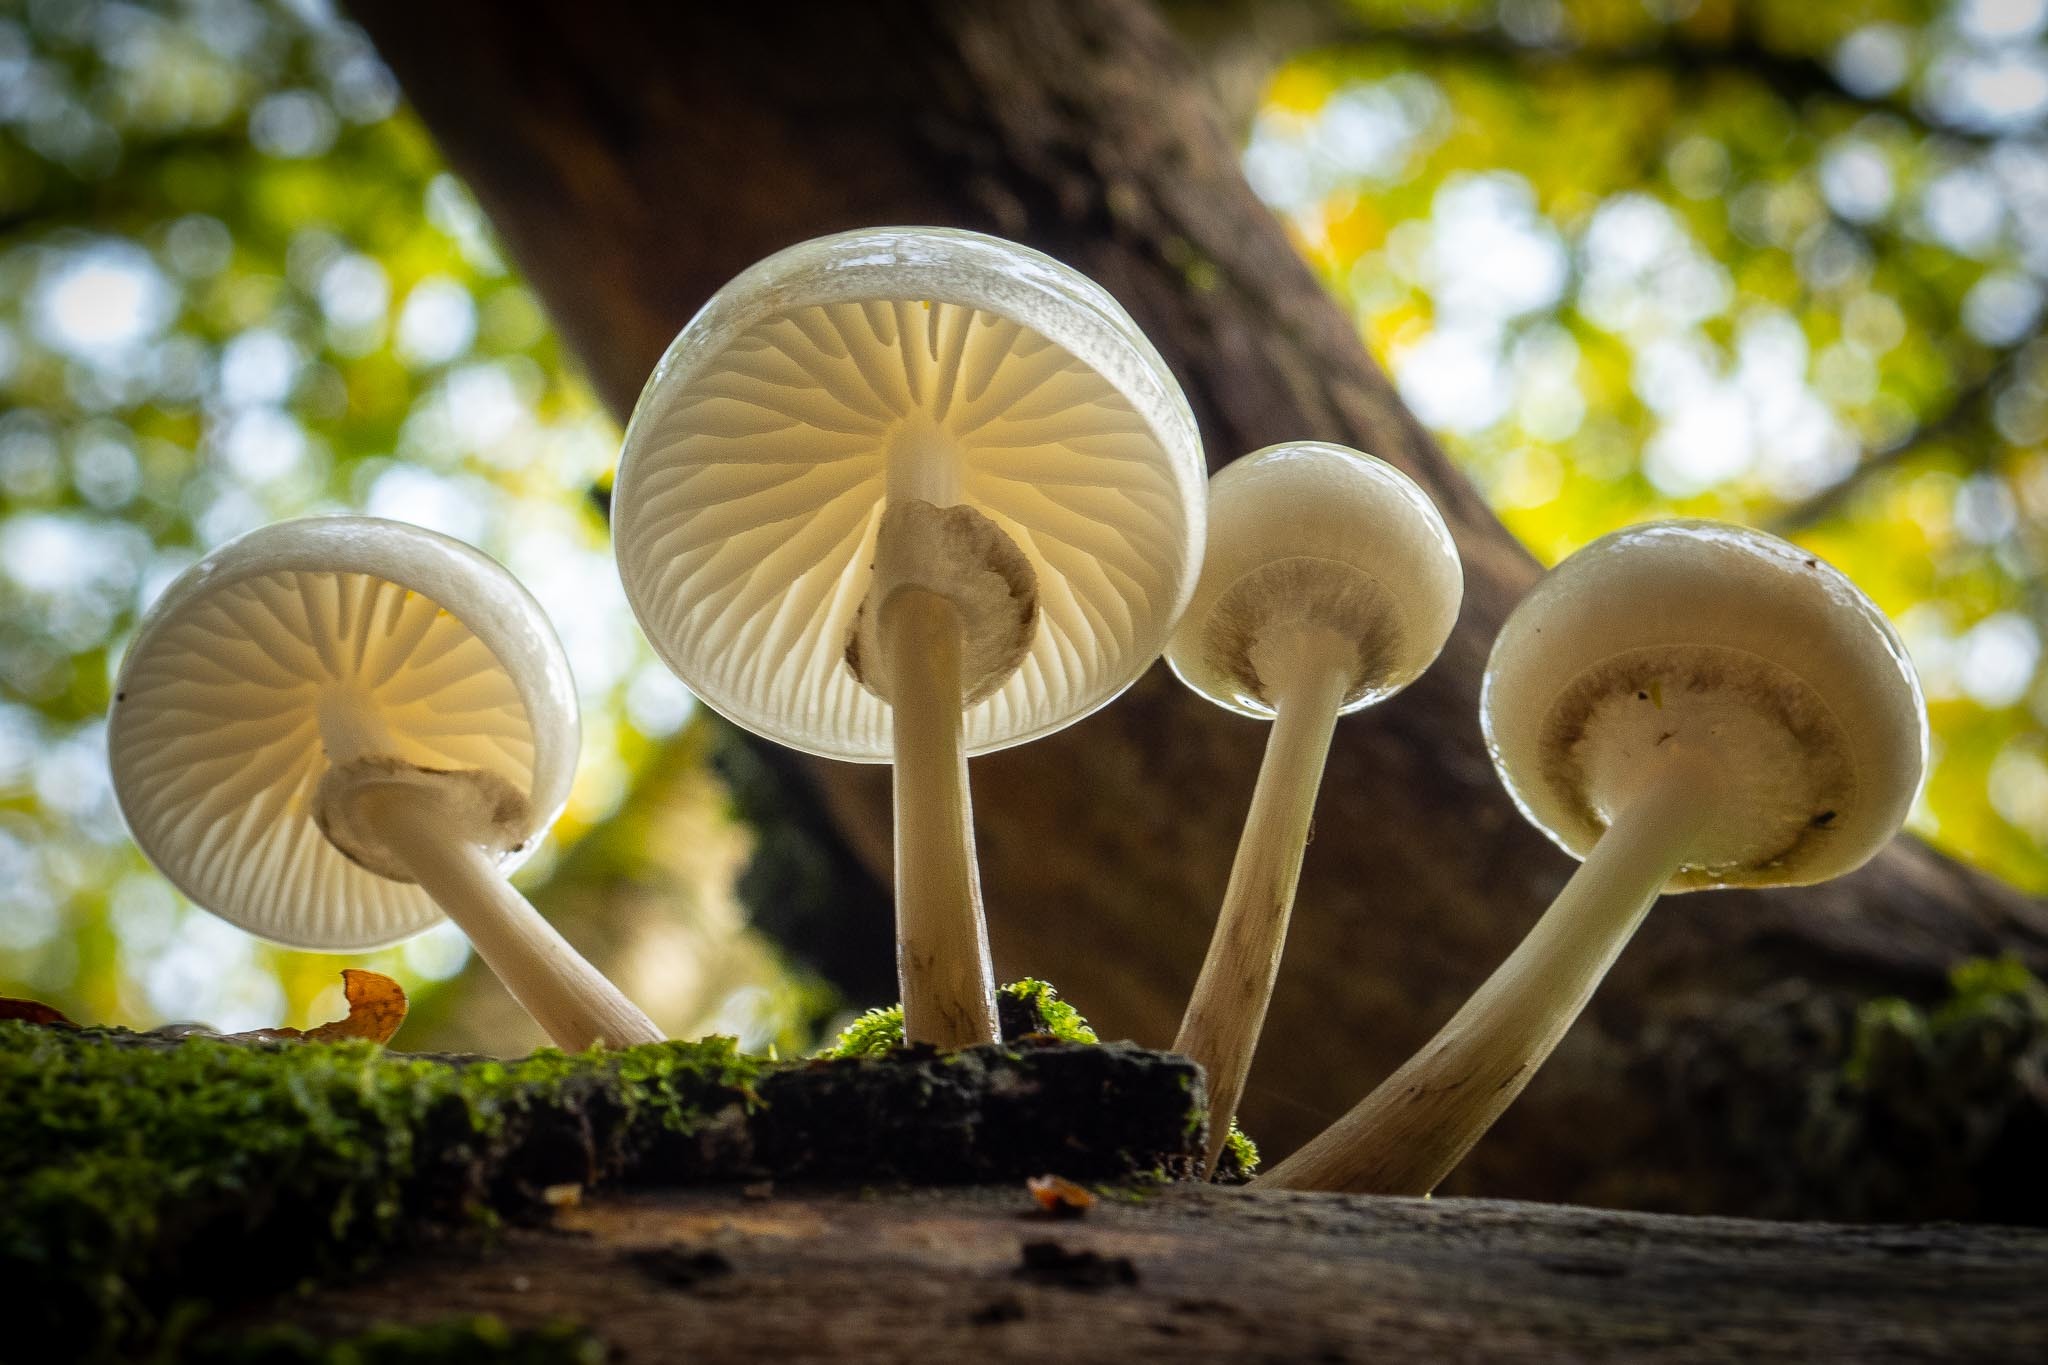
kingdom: Fungi
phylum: Basidiomycota
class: Agaricomycetes
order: Agaricales
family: Physalacriaceae
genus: Mucidula
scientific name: Mucidula mucida
